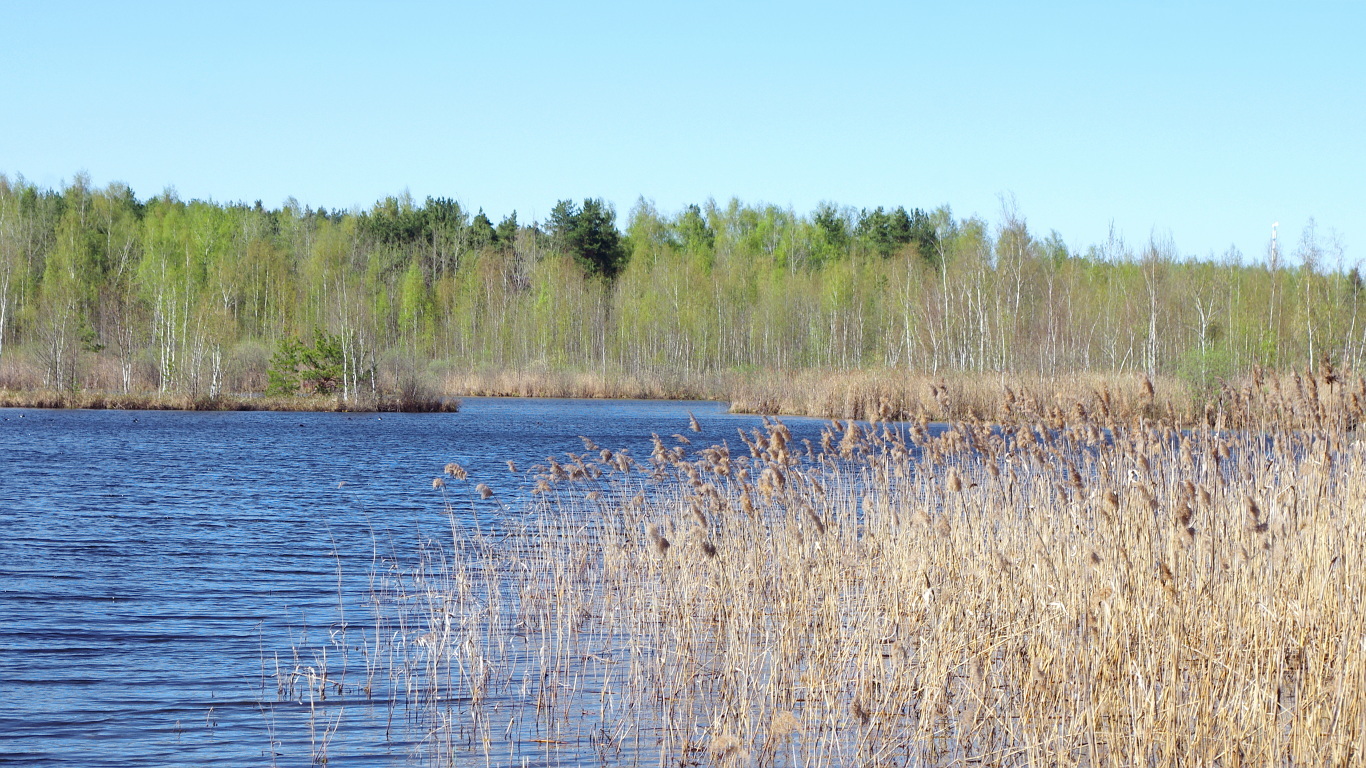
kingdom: Plantae
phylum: Tracheophyta
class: Liliopsida
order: Poales
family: Poaceae
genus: Phragmites
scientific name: Phragmites australis
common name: Common reed
